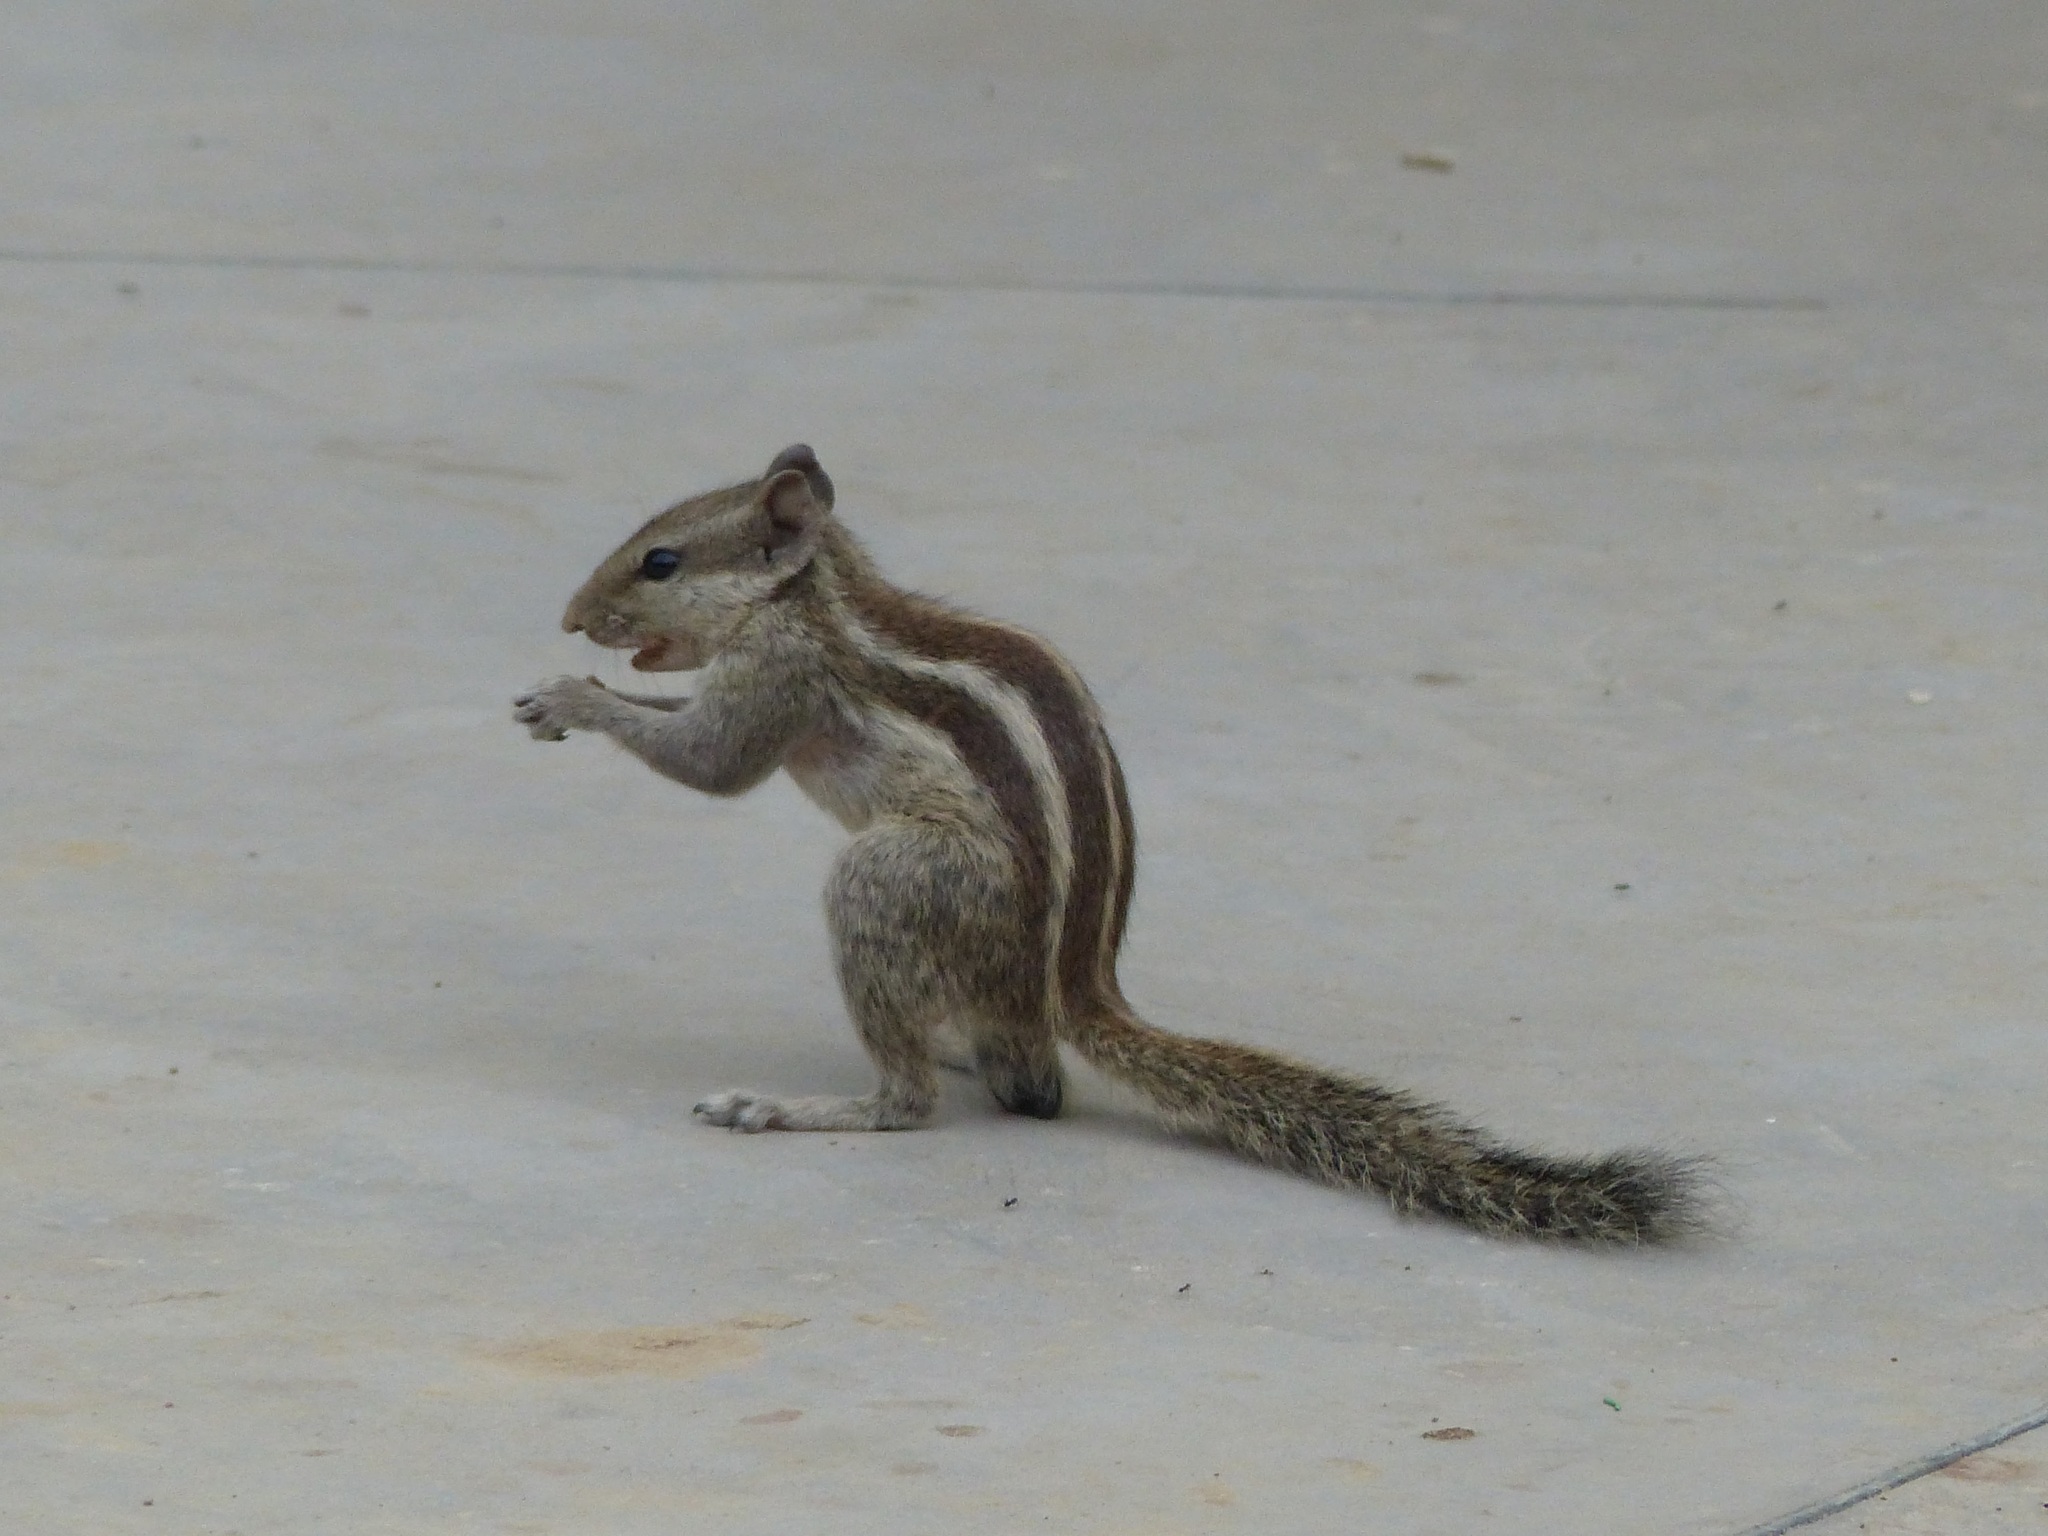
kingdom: Animalia
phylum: Chordata
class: Mammalia
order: Rodentia
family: Sciuridae
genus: Funambulus
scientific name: Funambulus pennantii
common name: Northern palm squirrel
